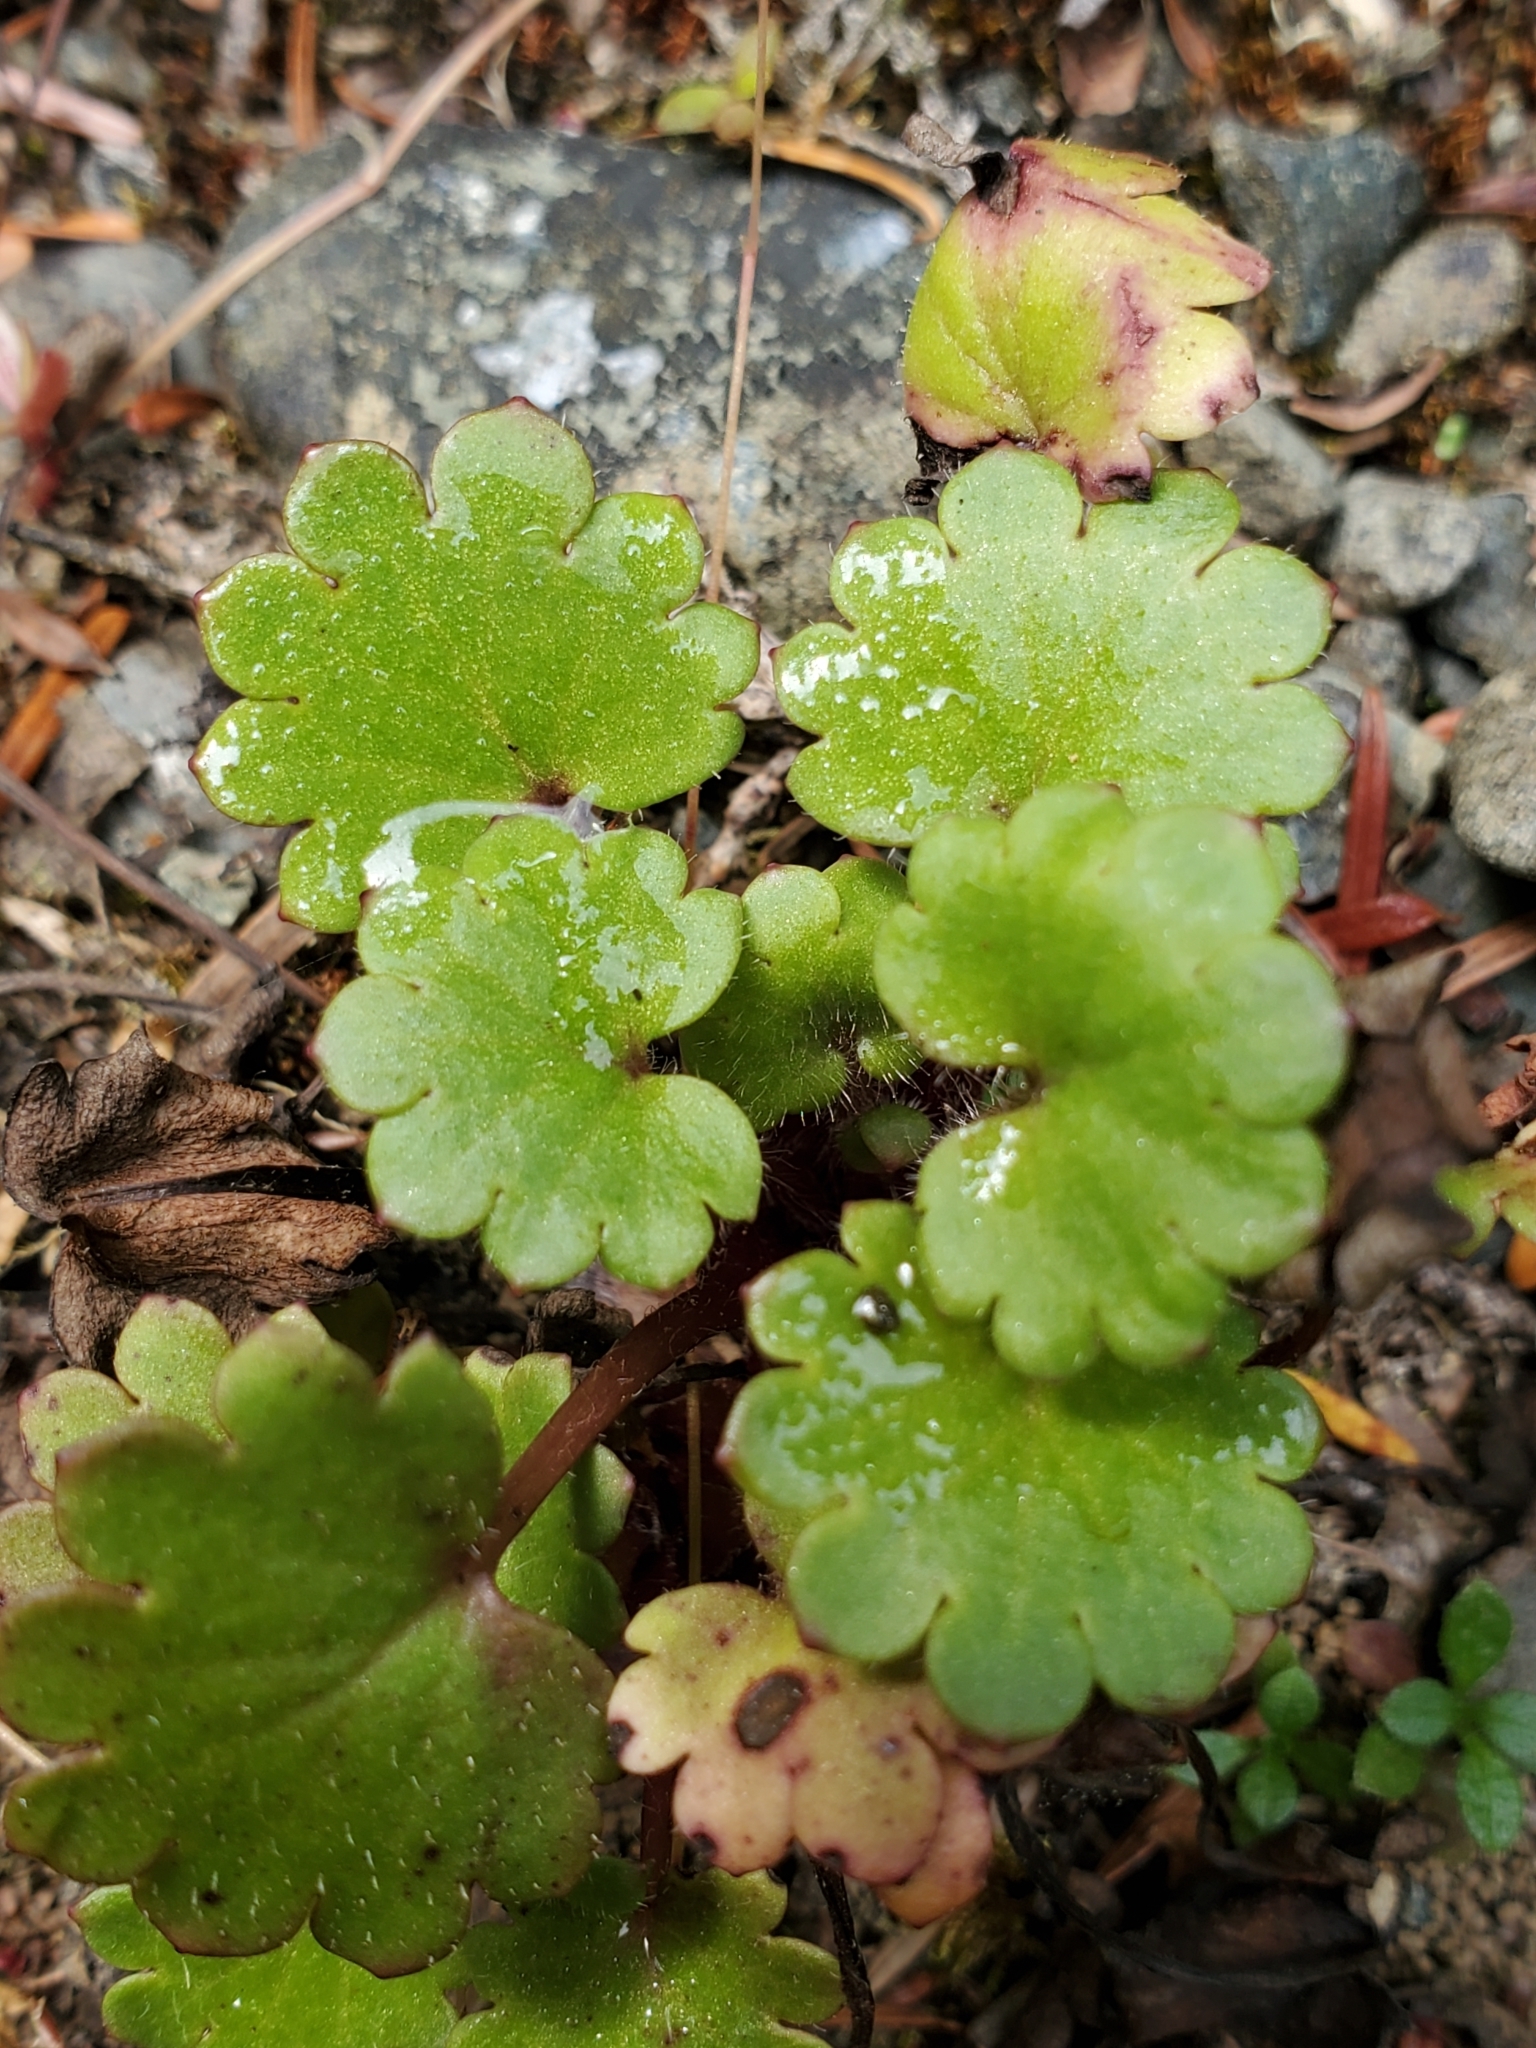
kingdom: Plantae
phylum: Tracheophyta
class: Magnoliopsida
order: Boraginales
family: Hydrophyllaceae
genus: Romanzoffia
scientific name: Romanzoffia sitchensis
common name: Sitka mistmaid
